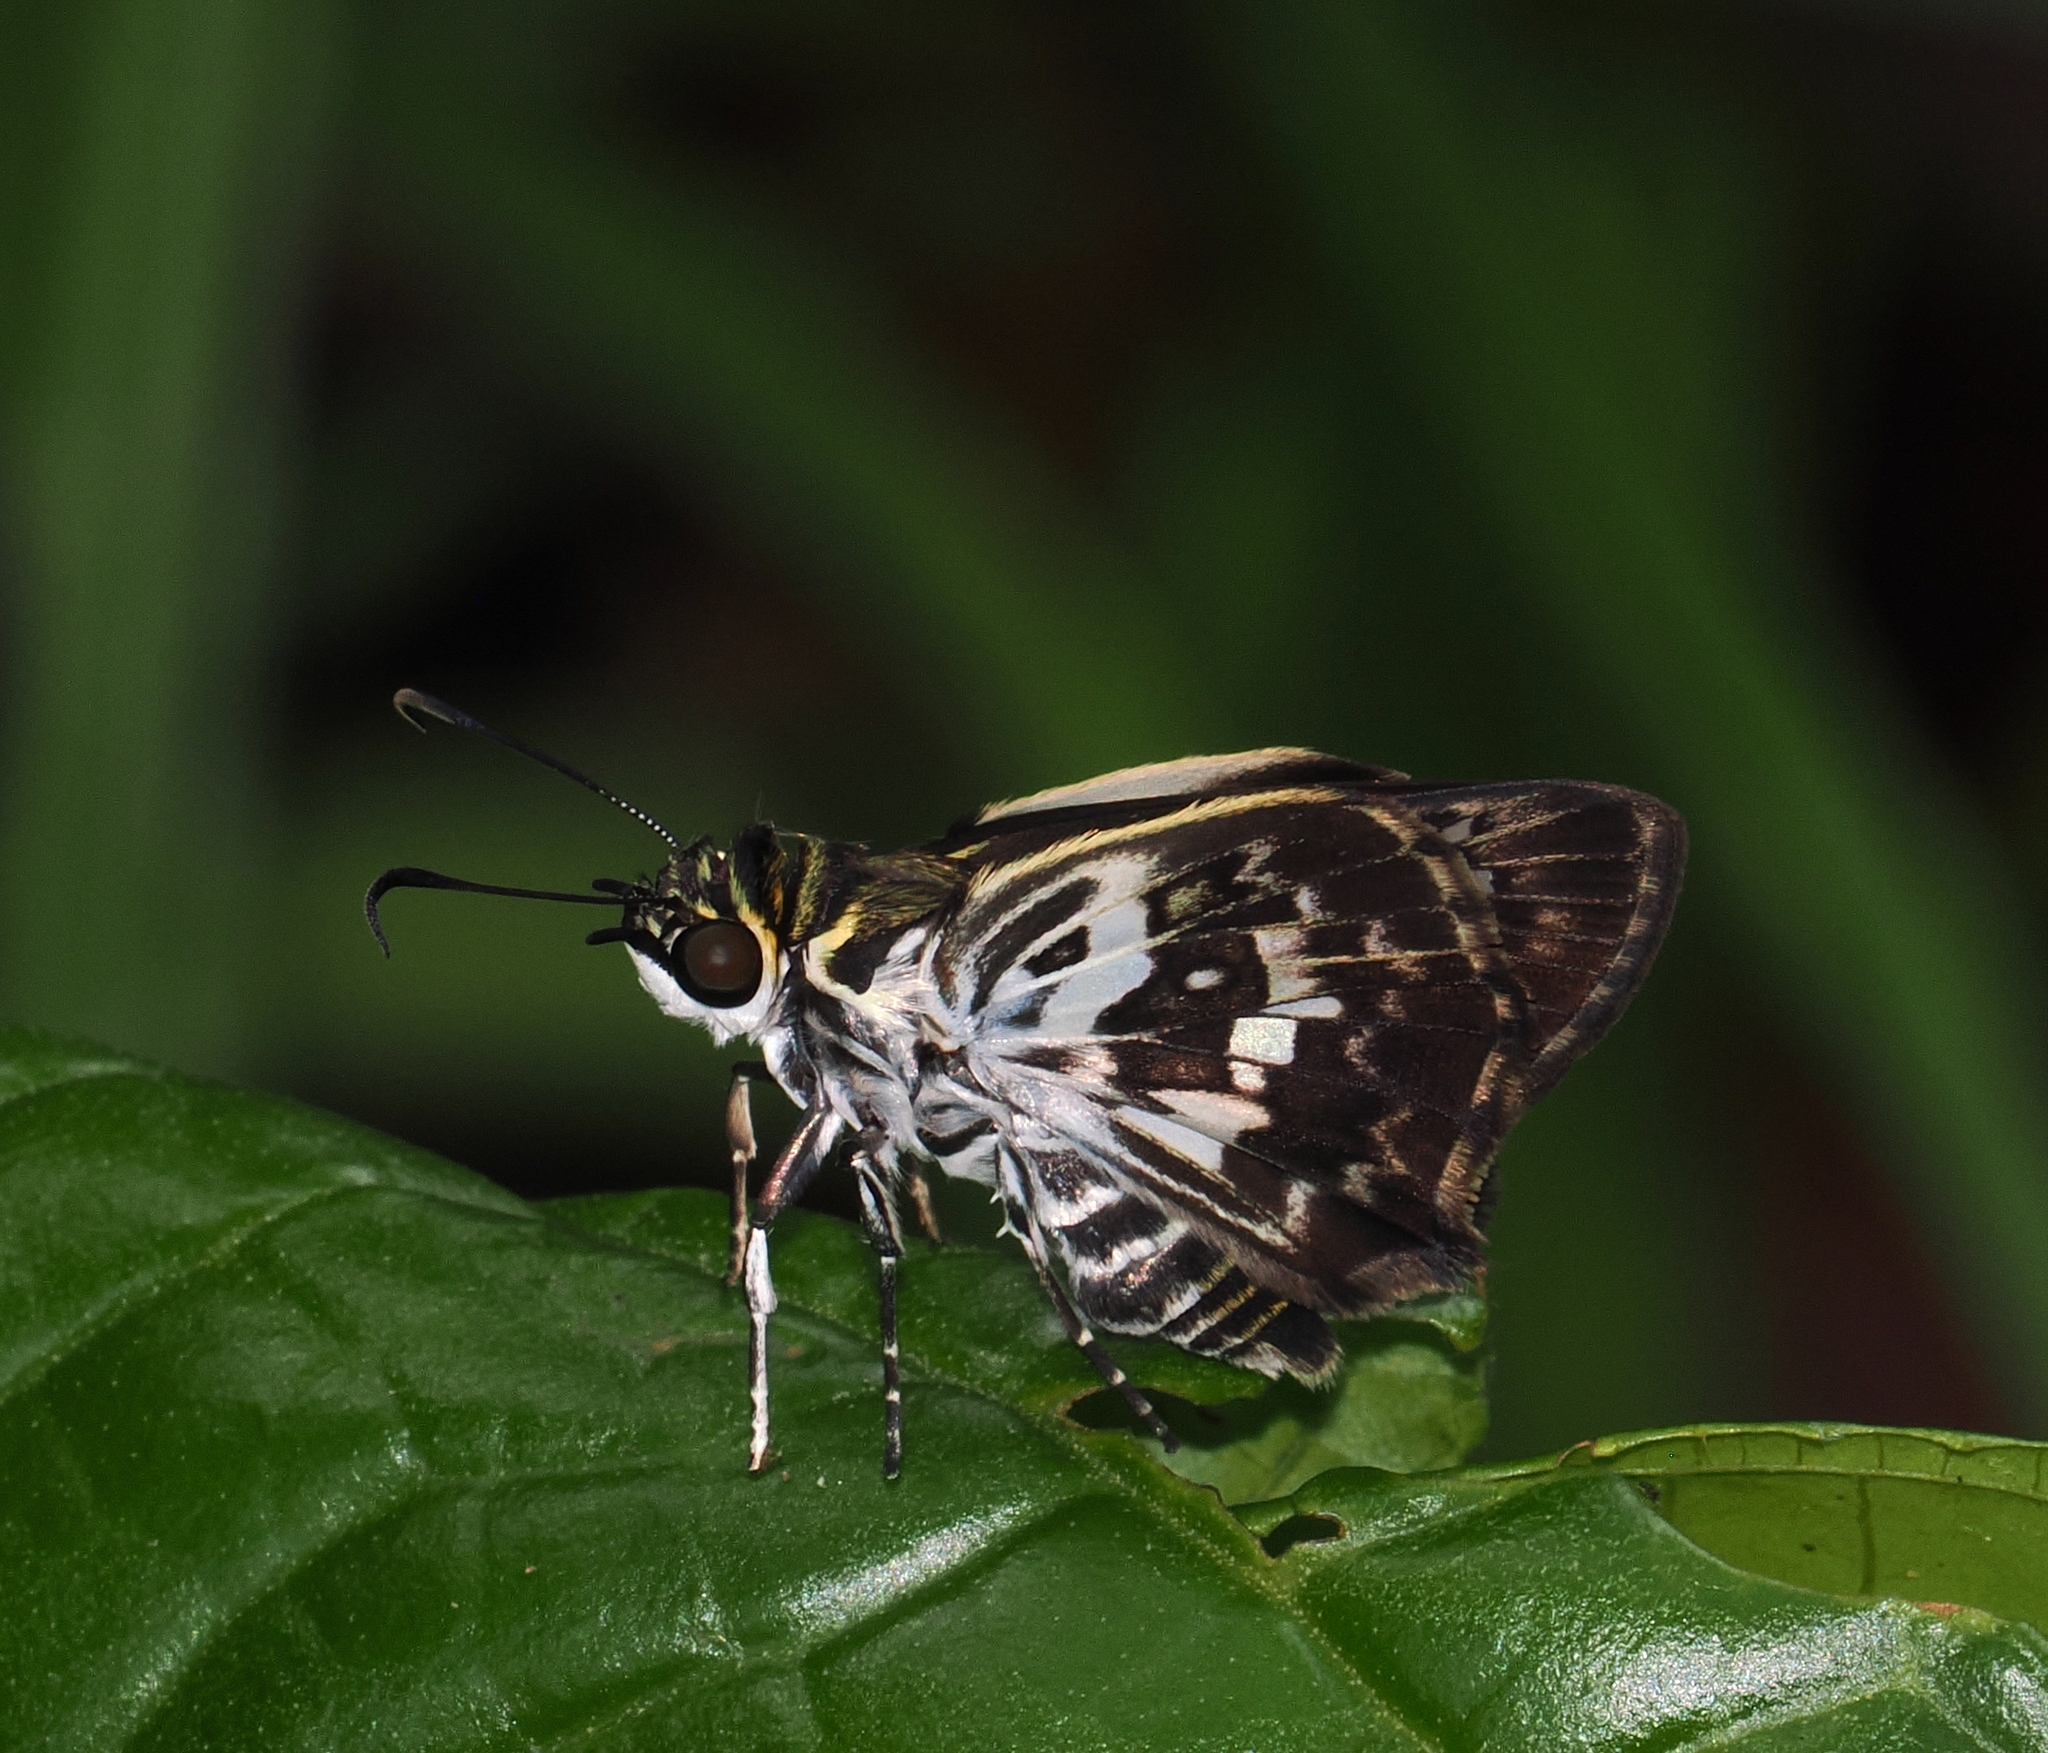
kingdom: Animalia
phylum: Arthropoda
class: Insecta
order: Lepidoptera
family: Hesperiidae
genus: Udranomia
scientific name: Udranomia kikkawai
